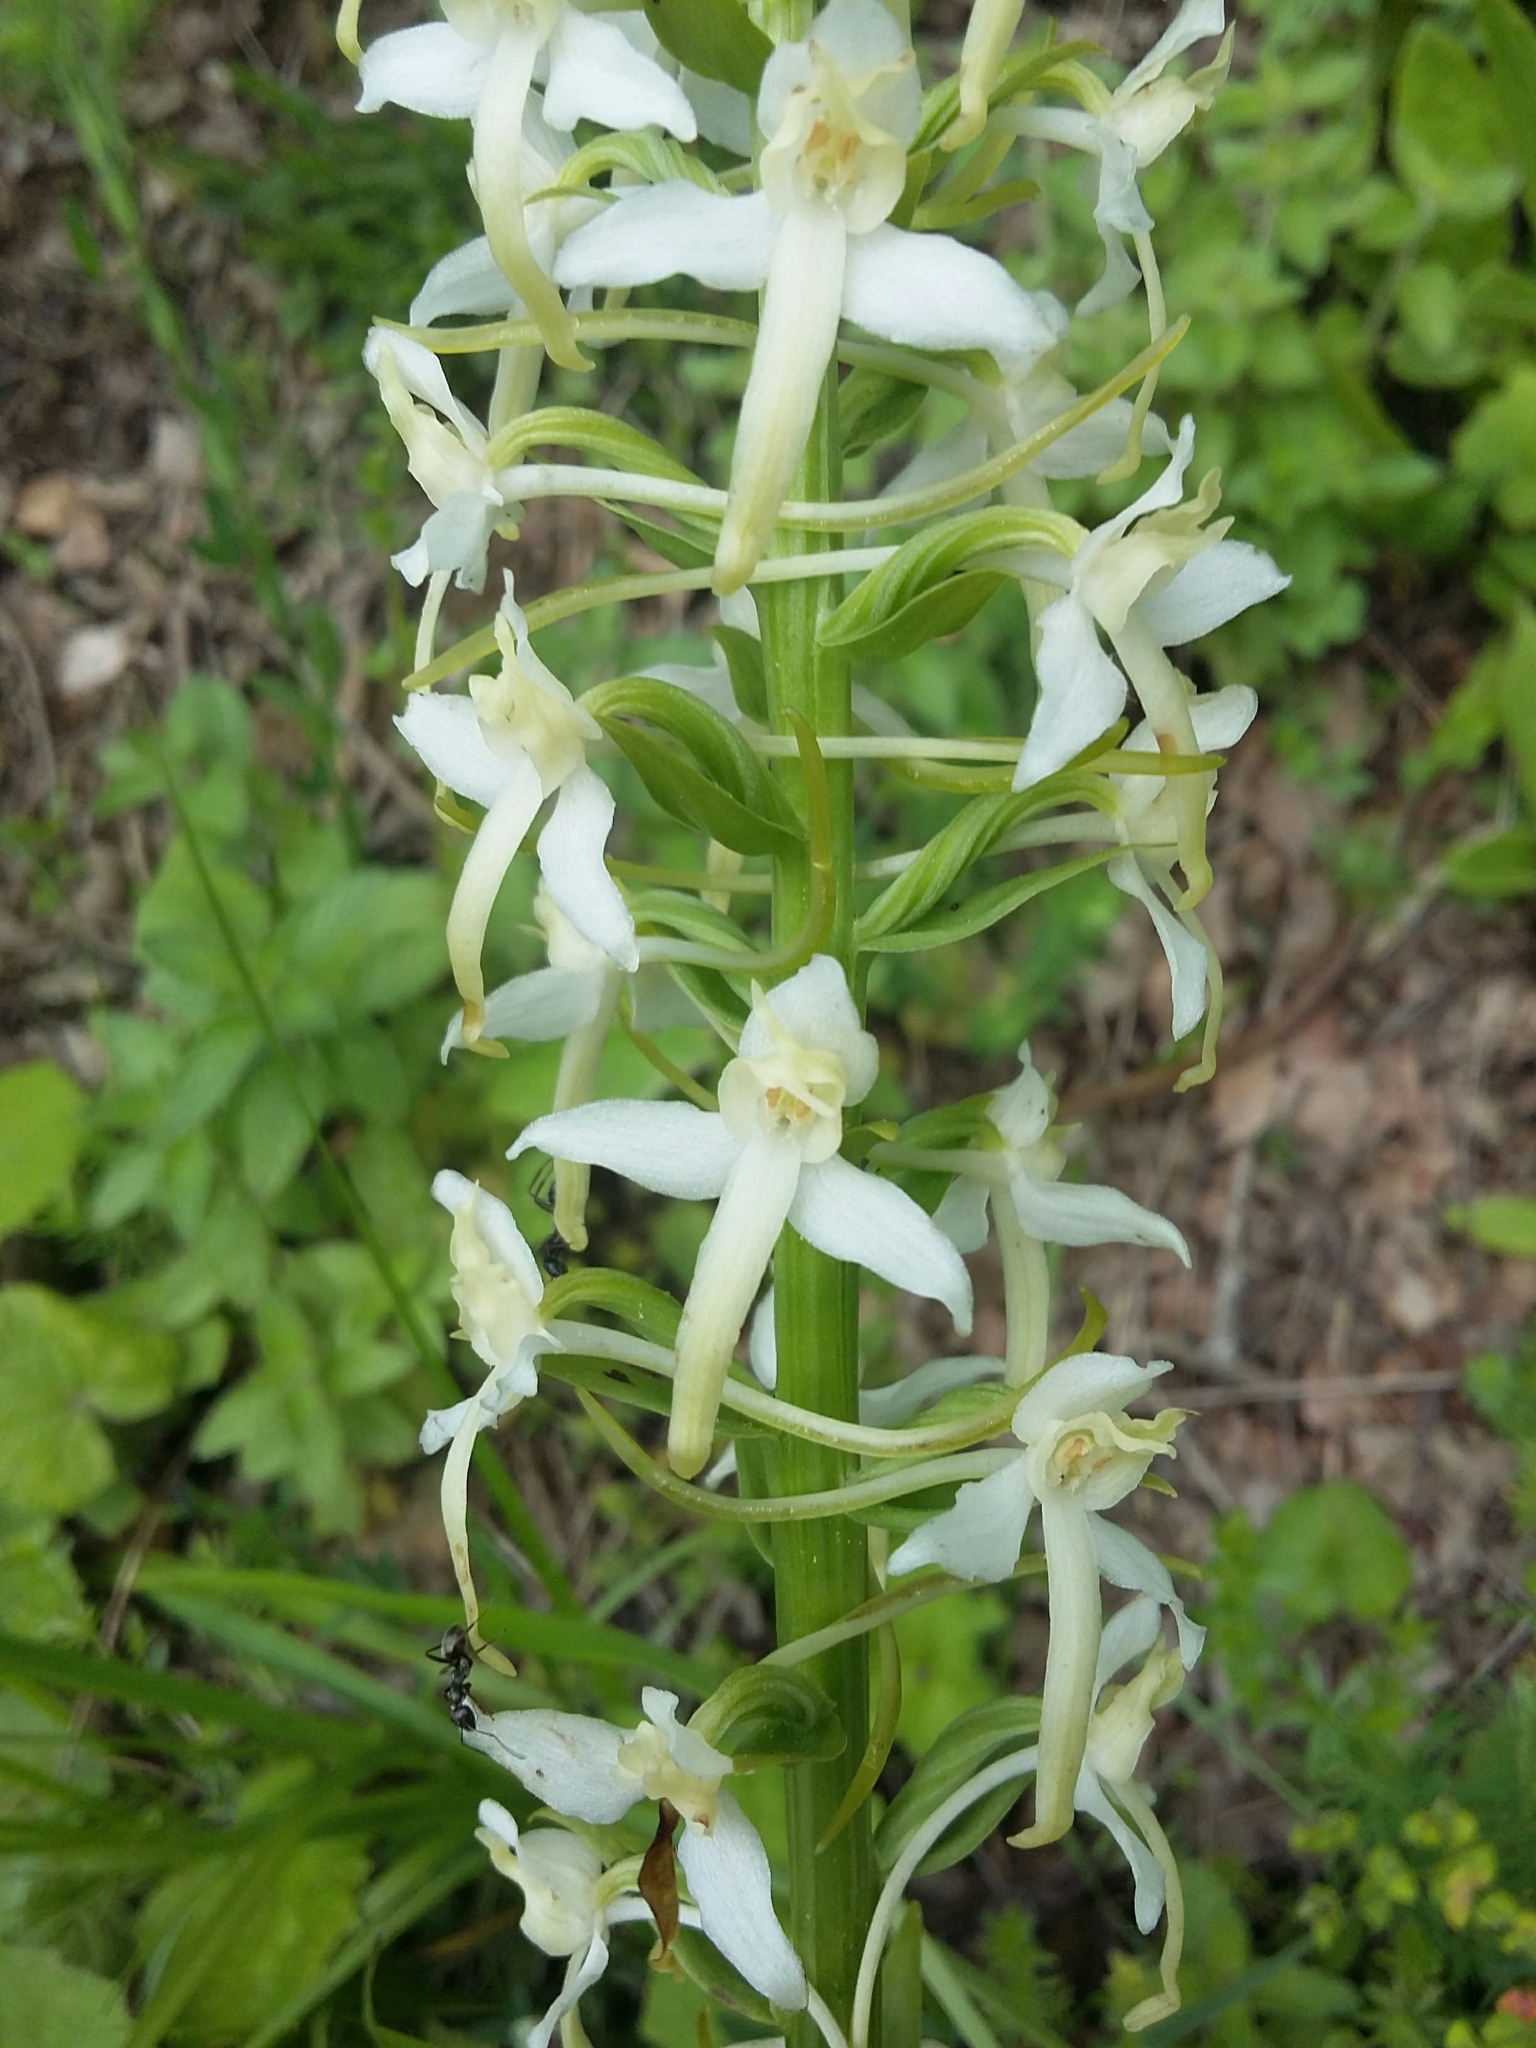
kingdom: Plantae
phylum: Tracheophyta
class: Liliopsida
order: Asparagales
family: Orchidaceae
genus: Platanthera
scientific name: Platanthera bifolia
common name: Lesser butterfly-orchid
